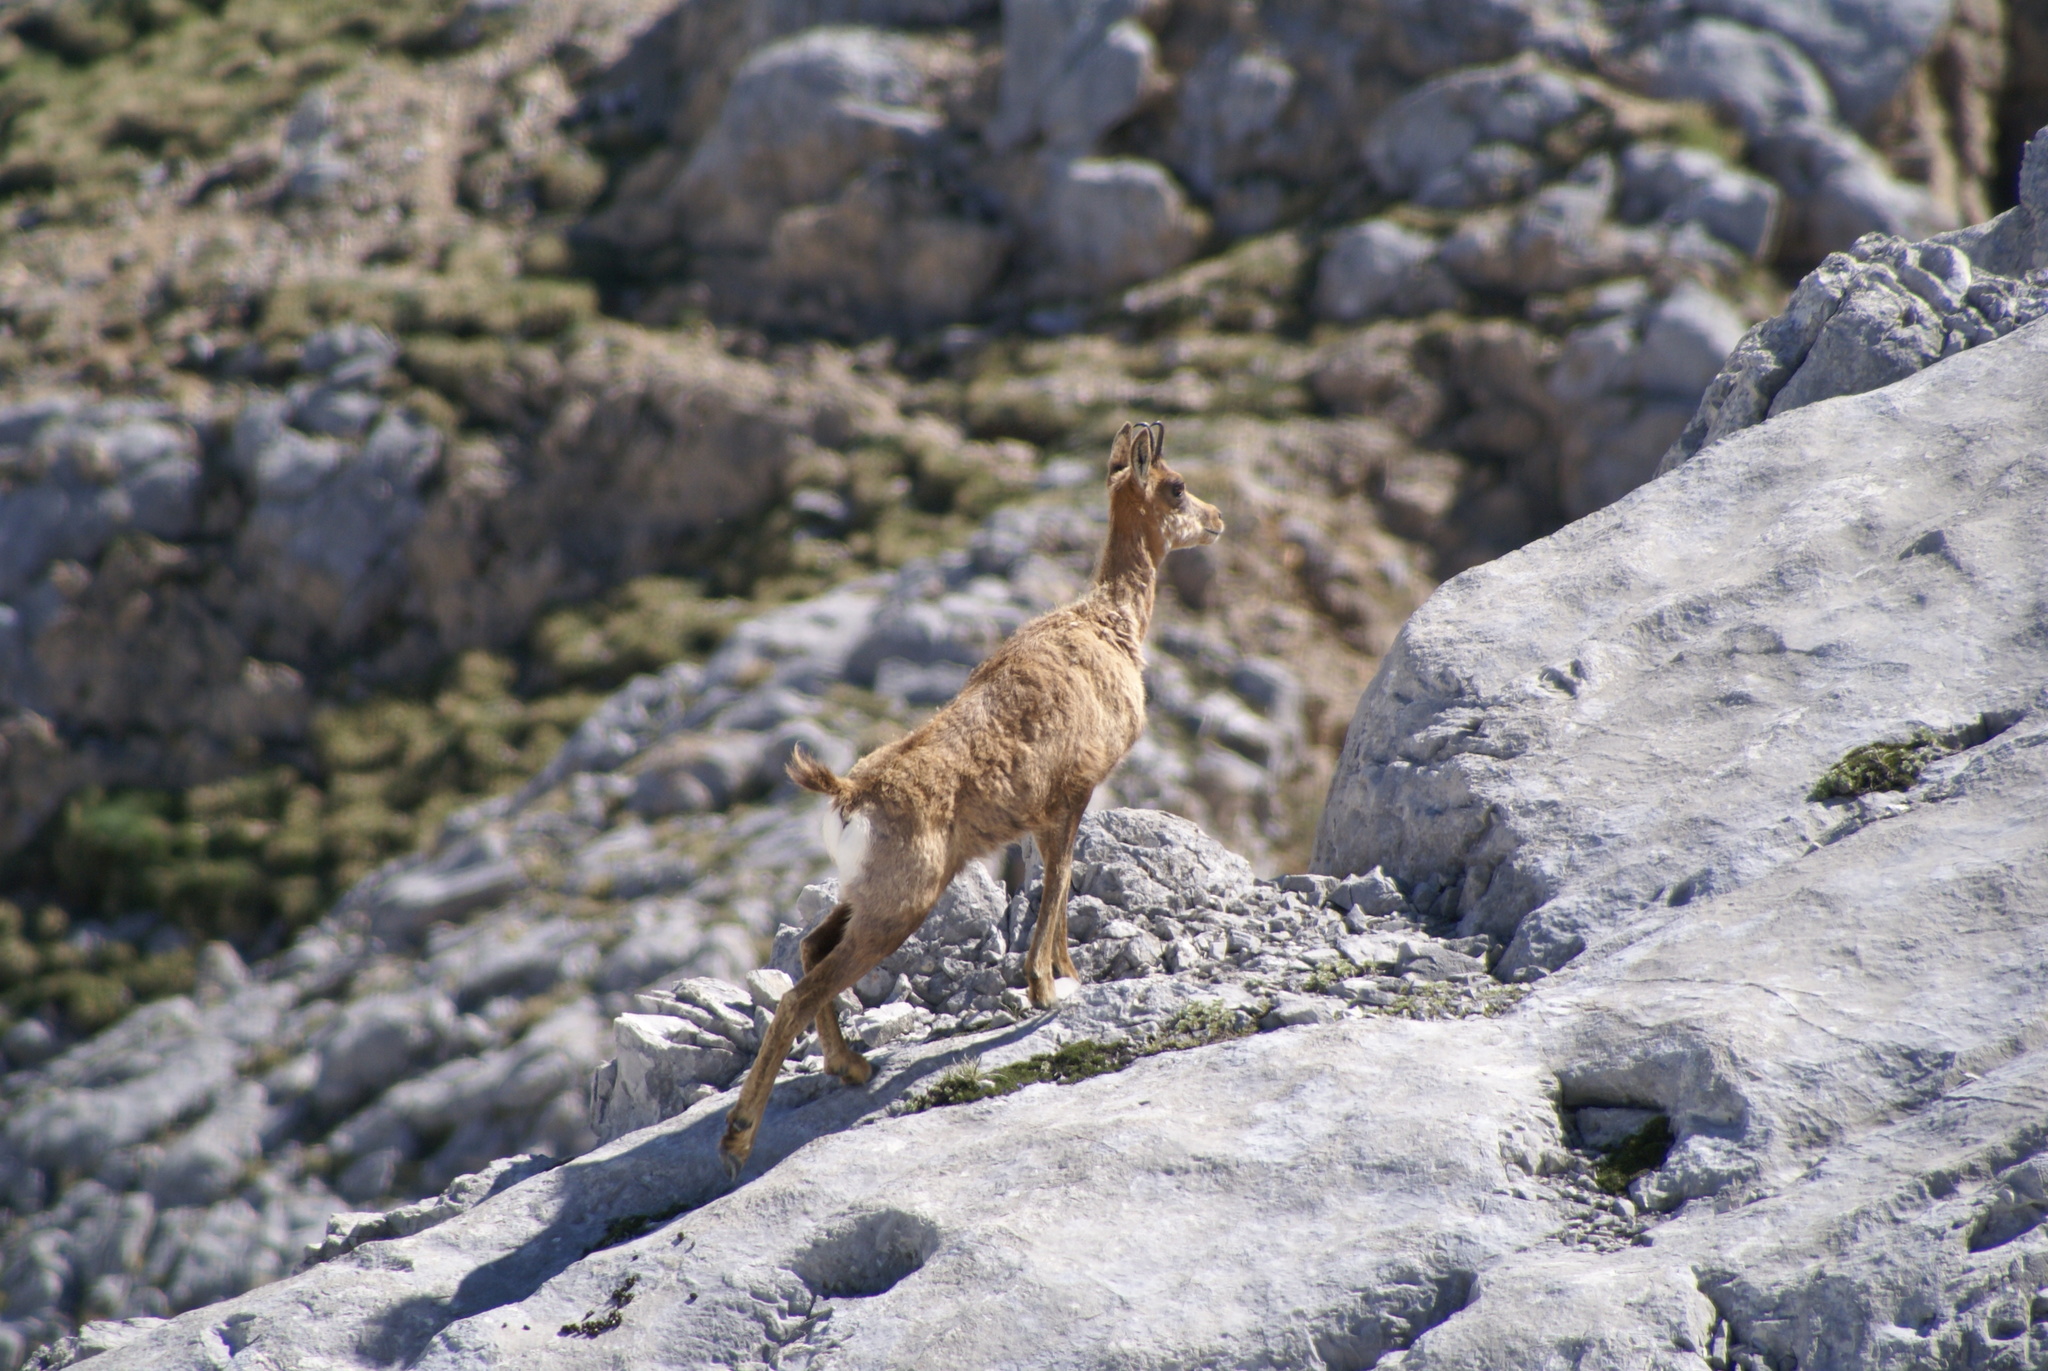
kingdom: Animalia
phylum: Chordata
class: Mammalia
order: Artiodactyla
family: Bovidae
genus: Rupicapra
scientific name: Rupicapra pyrenaica
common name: Pyrenean chamois
